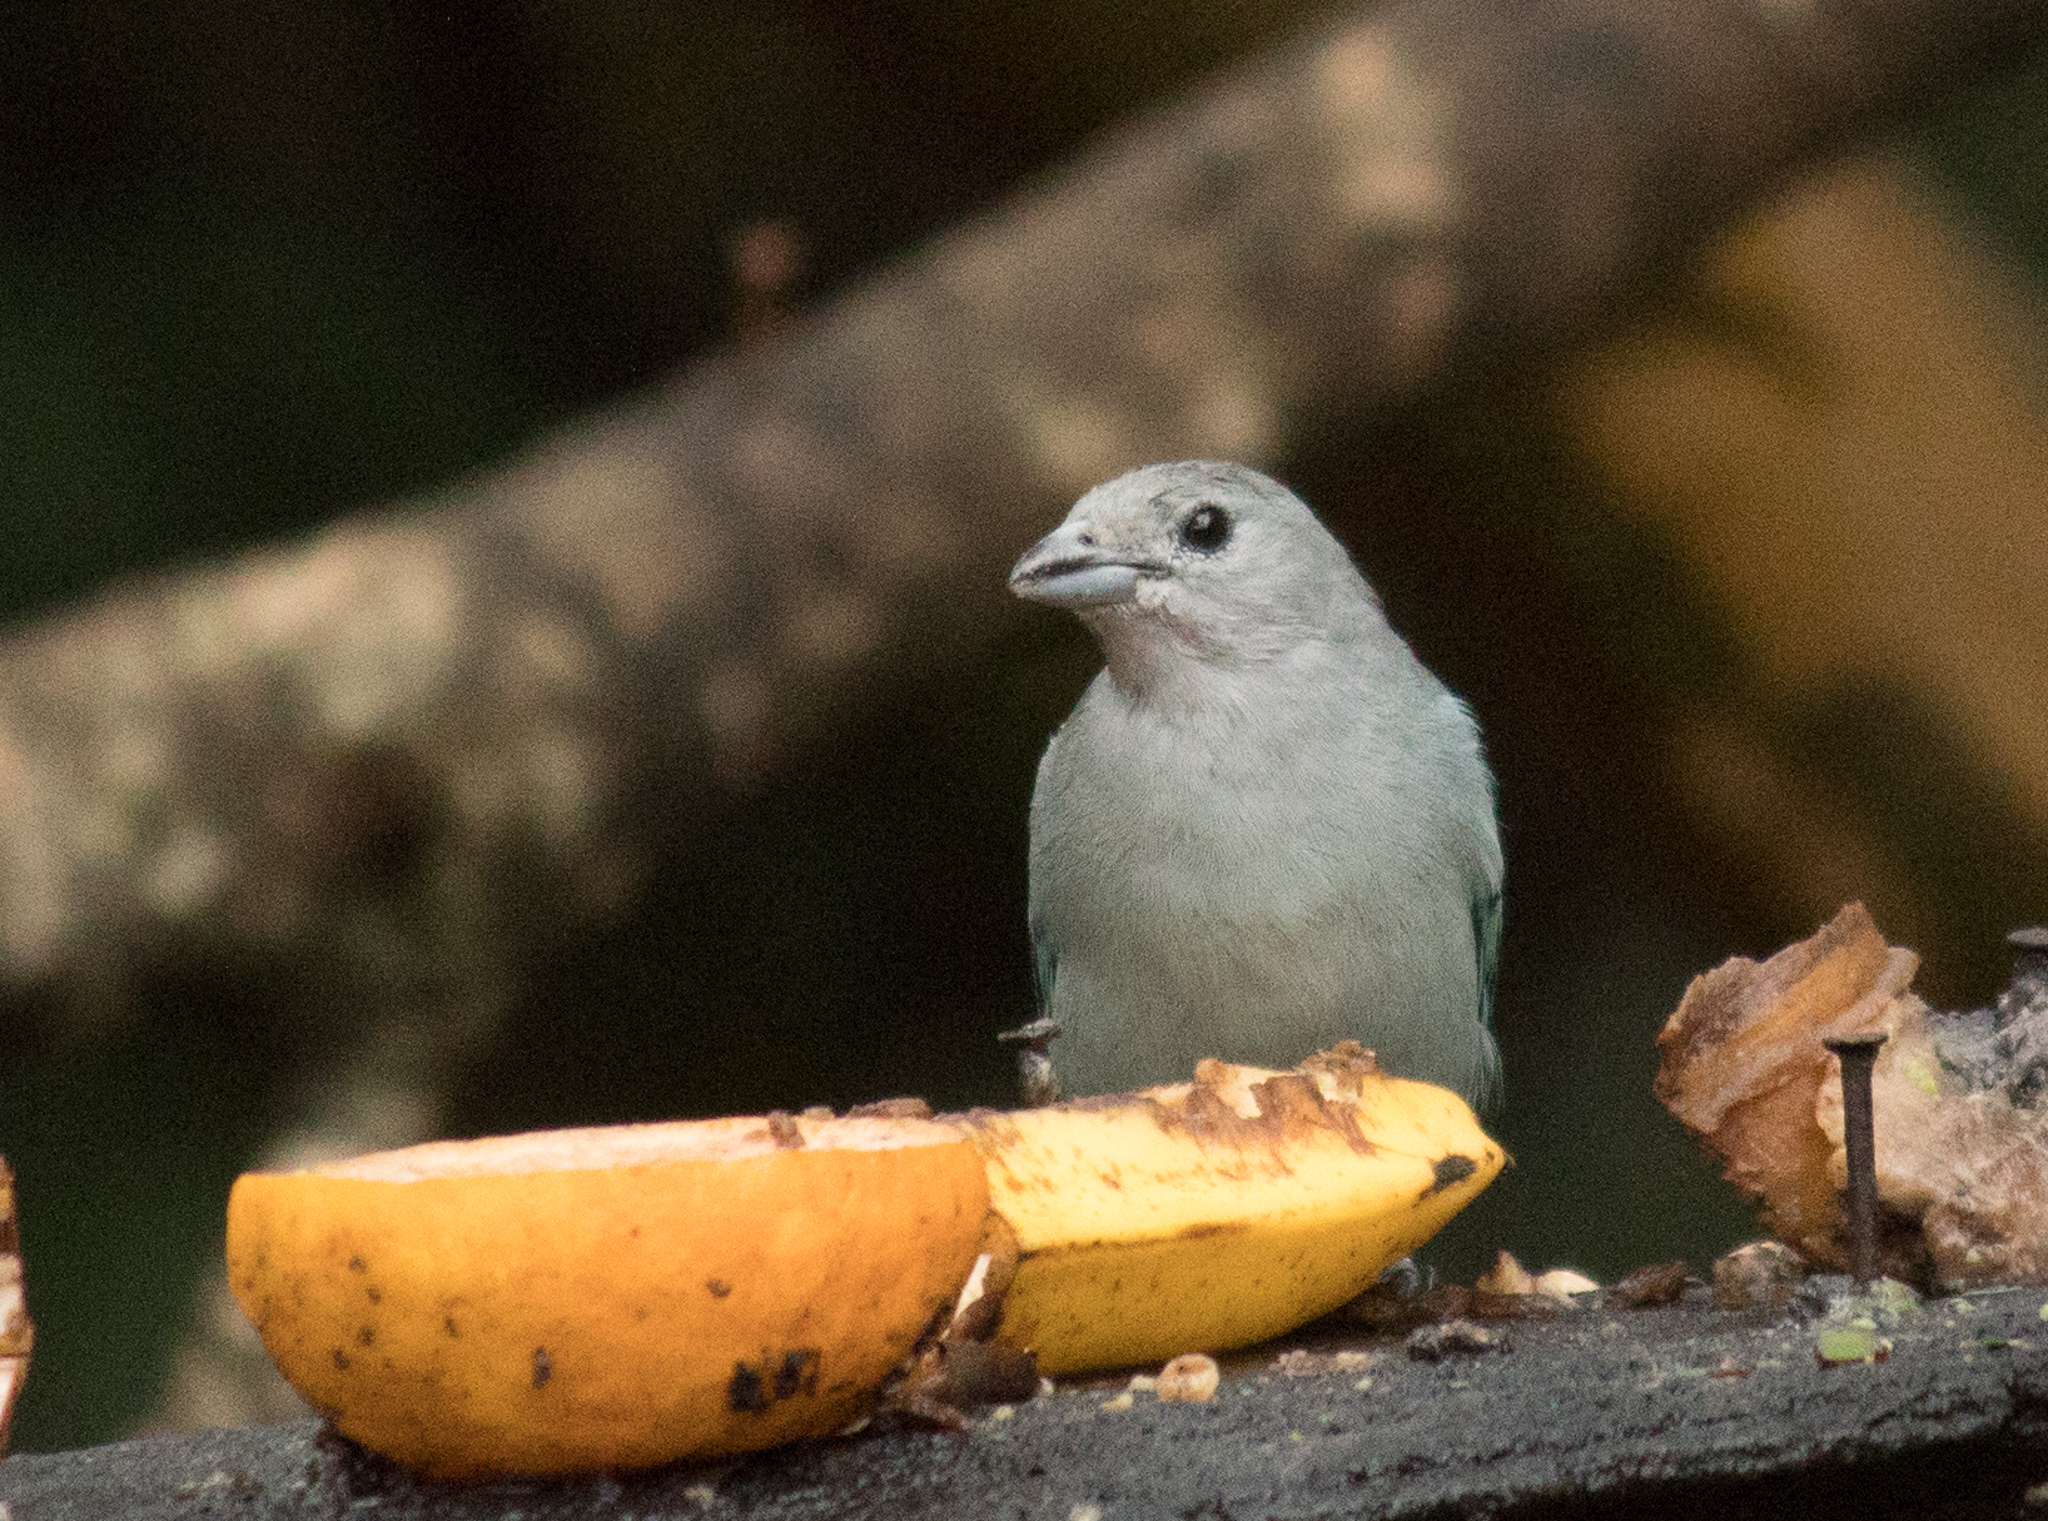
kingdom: Animalia
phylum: Chordata
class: Aves
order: Passeriformes
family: Thraupidae
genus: Thraupis
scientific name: Thraupis sayaca
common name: Sayaca tanager
